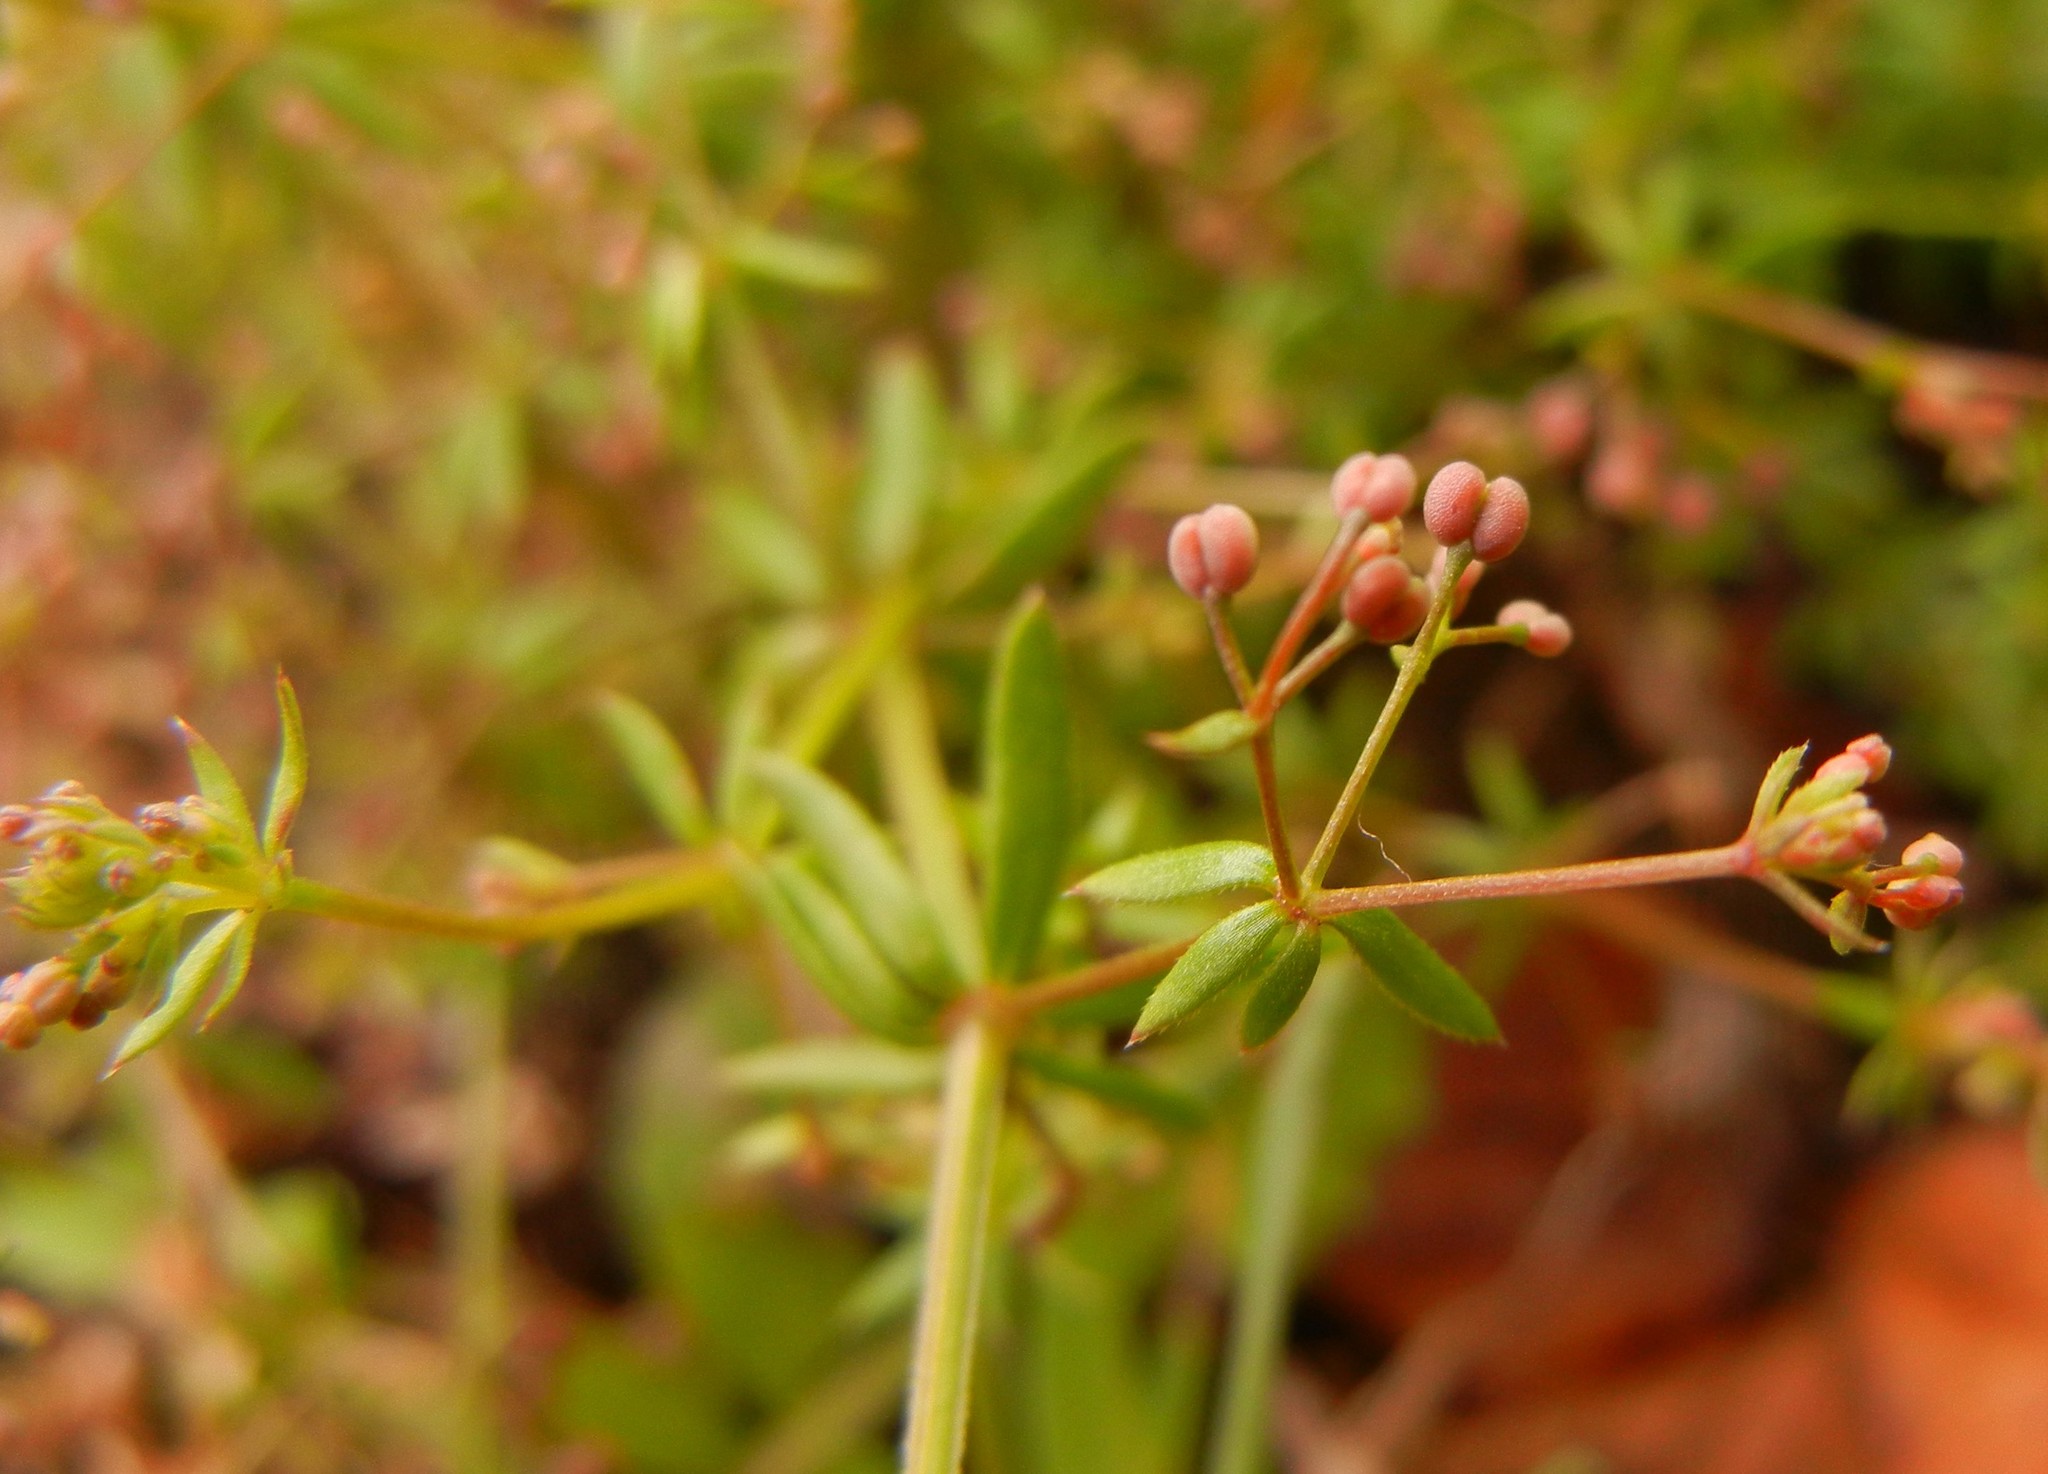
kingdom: Plantae
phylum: Tracheophyta
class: Magnoliopsida
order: Gentianales
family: Rubiaceae
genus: Galium
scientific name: Galium parisiense
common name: Wall bedstraw
